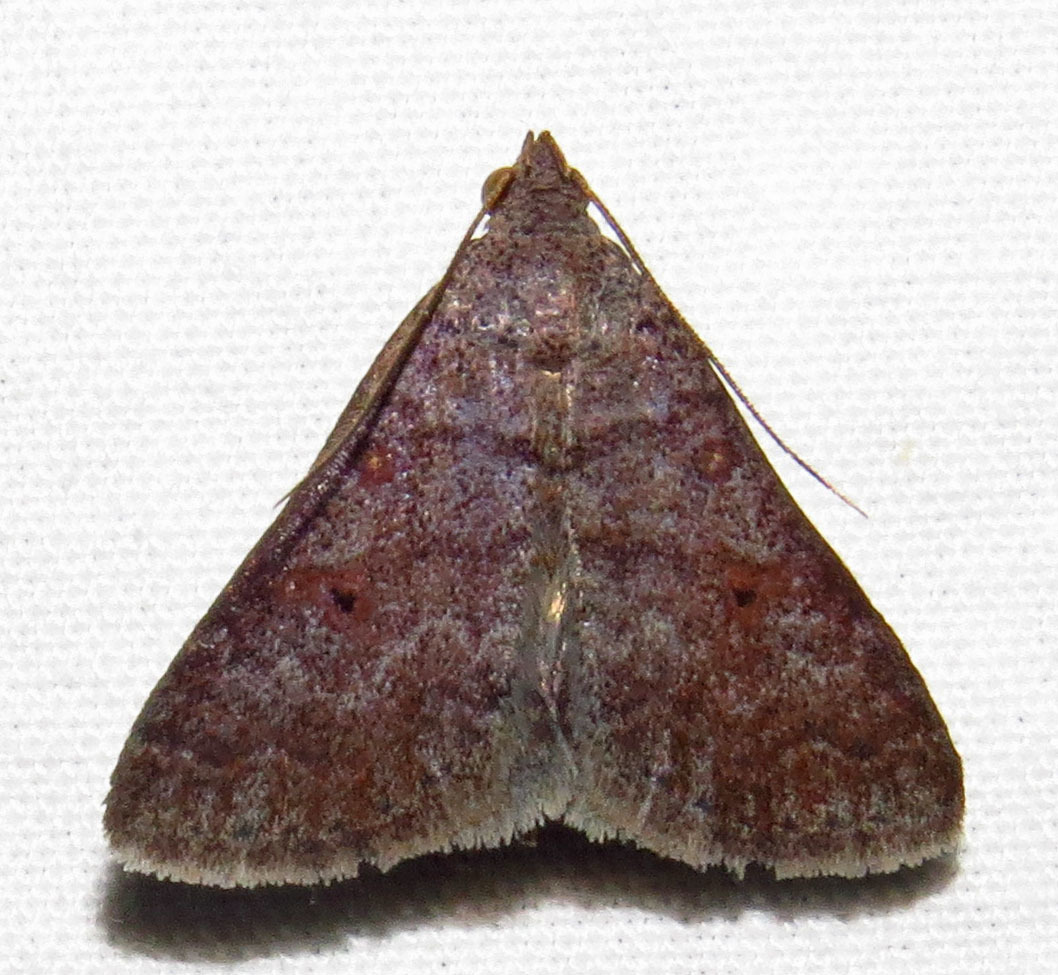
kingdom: Animalia
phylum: Arthropoda
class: Insecta
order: Lepidoptera
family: Erebidae
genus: Renia
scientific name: Renia flavipunctalis
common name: Yellow-spotted renia moth
